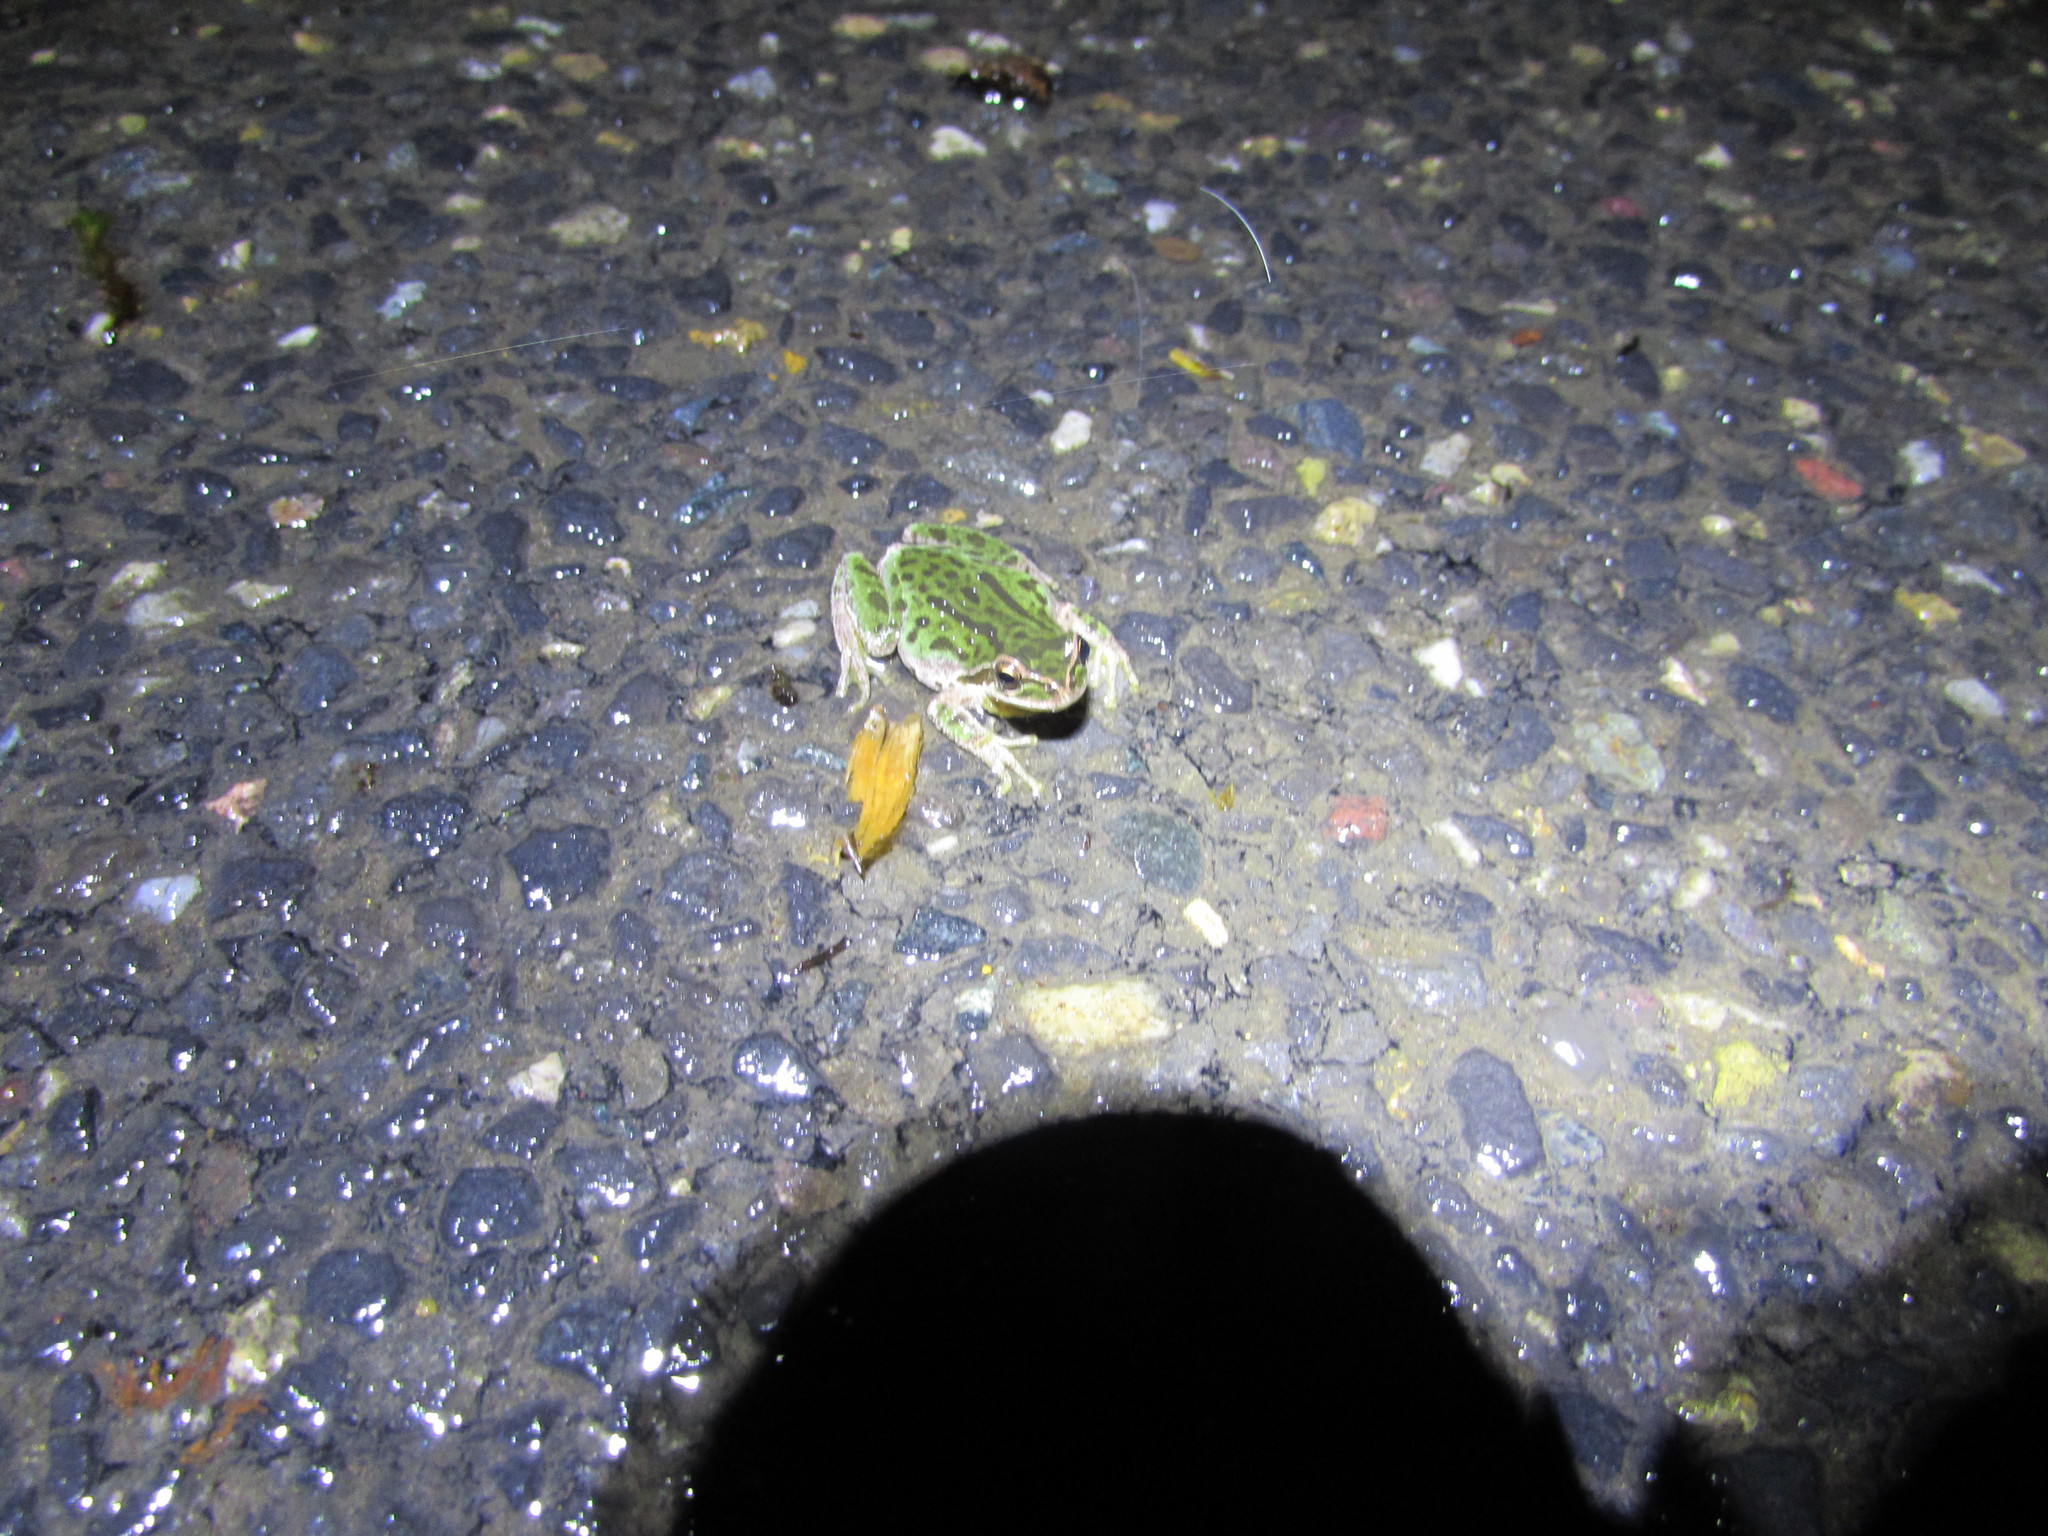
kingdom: Animalia
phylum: Chordata
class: Amphibia
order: Anura
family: Hylidae
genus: Pseudacris
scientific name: Pseudacris regilla
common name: Pacific chorus frog
